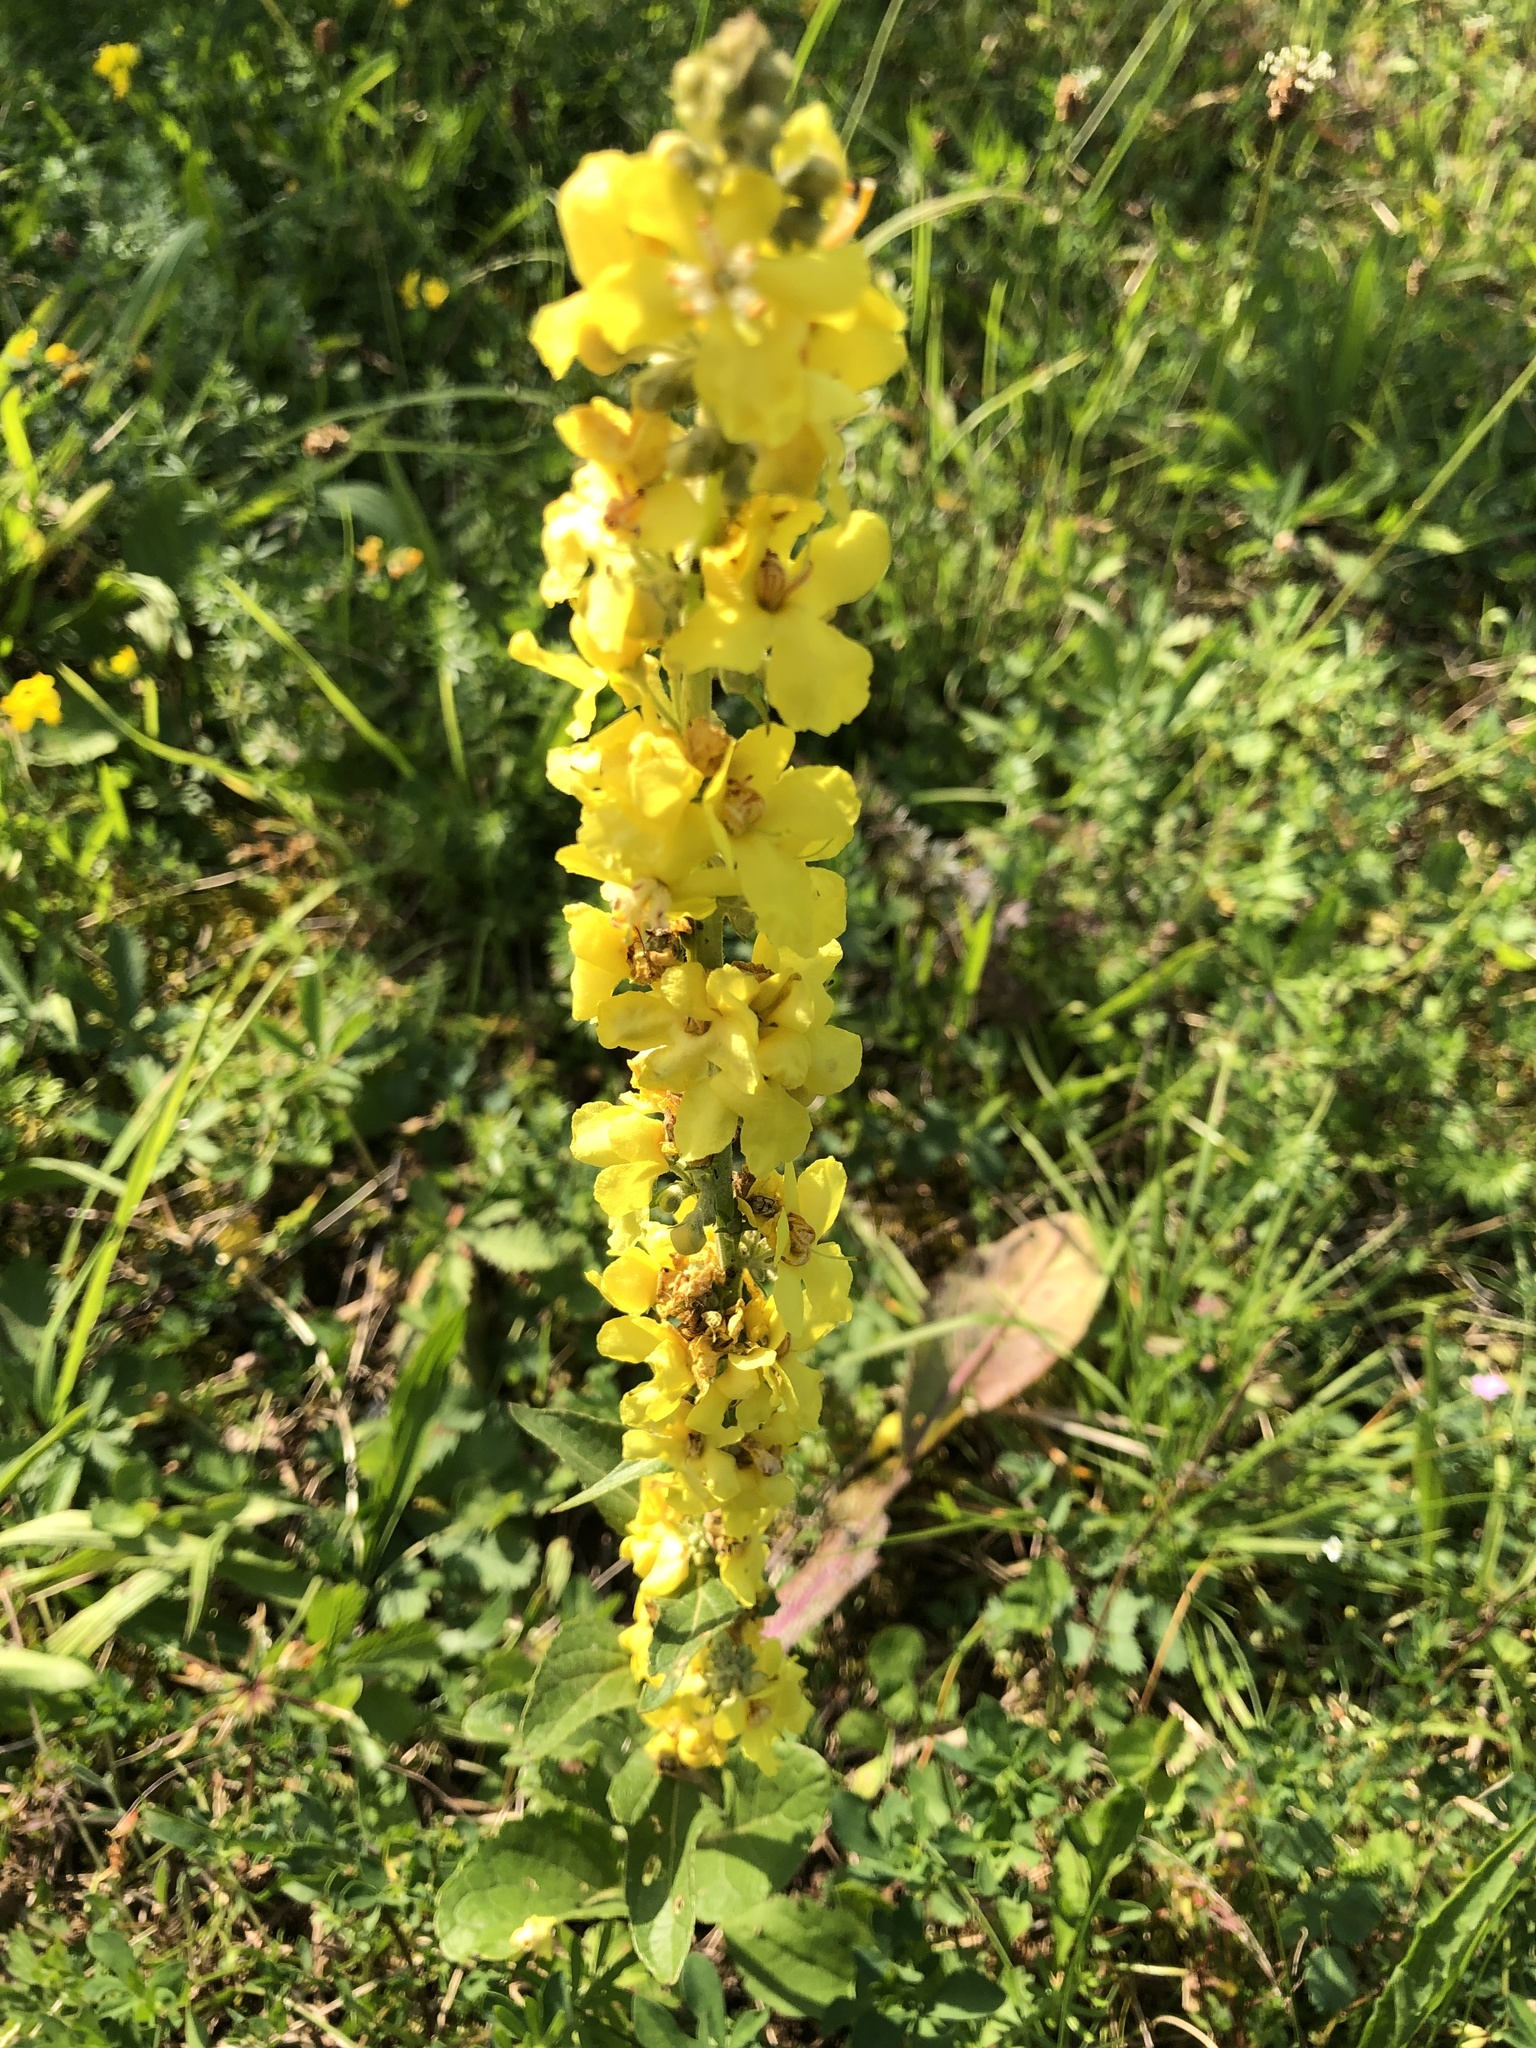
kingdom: Plantae
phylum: Tracheophyta
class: Magnoliopsida
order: Lamiales
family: Scrophulariaceae
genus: Verbascum
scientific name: Verbascum nigrum
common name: Dark mullein
